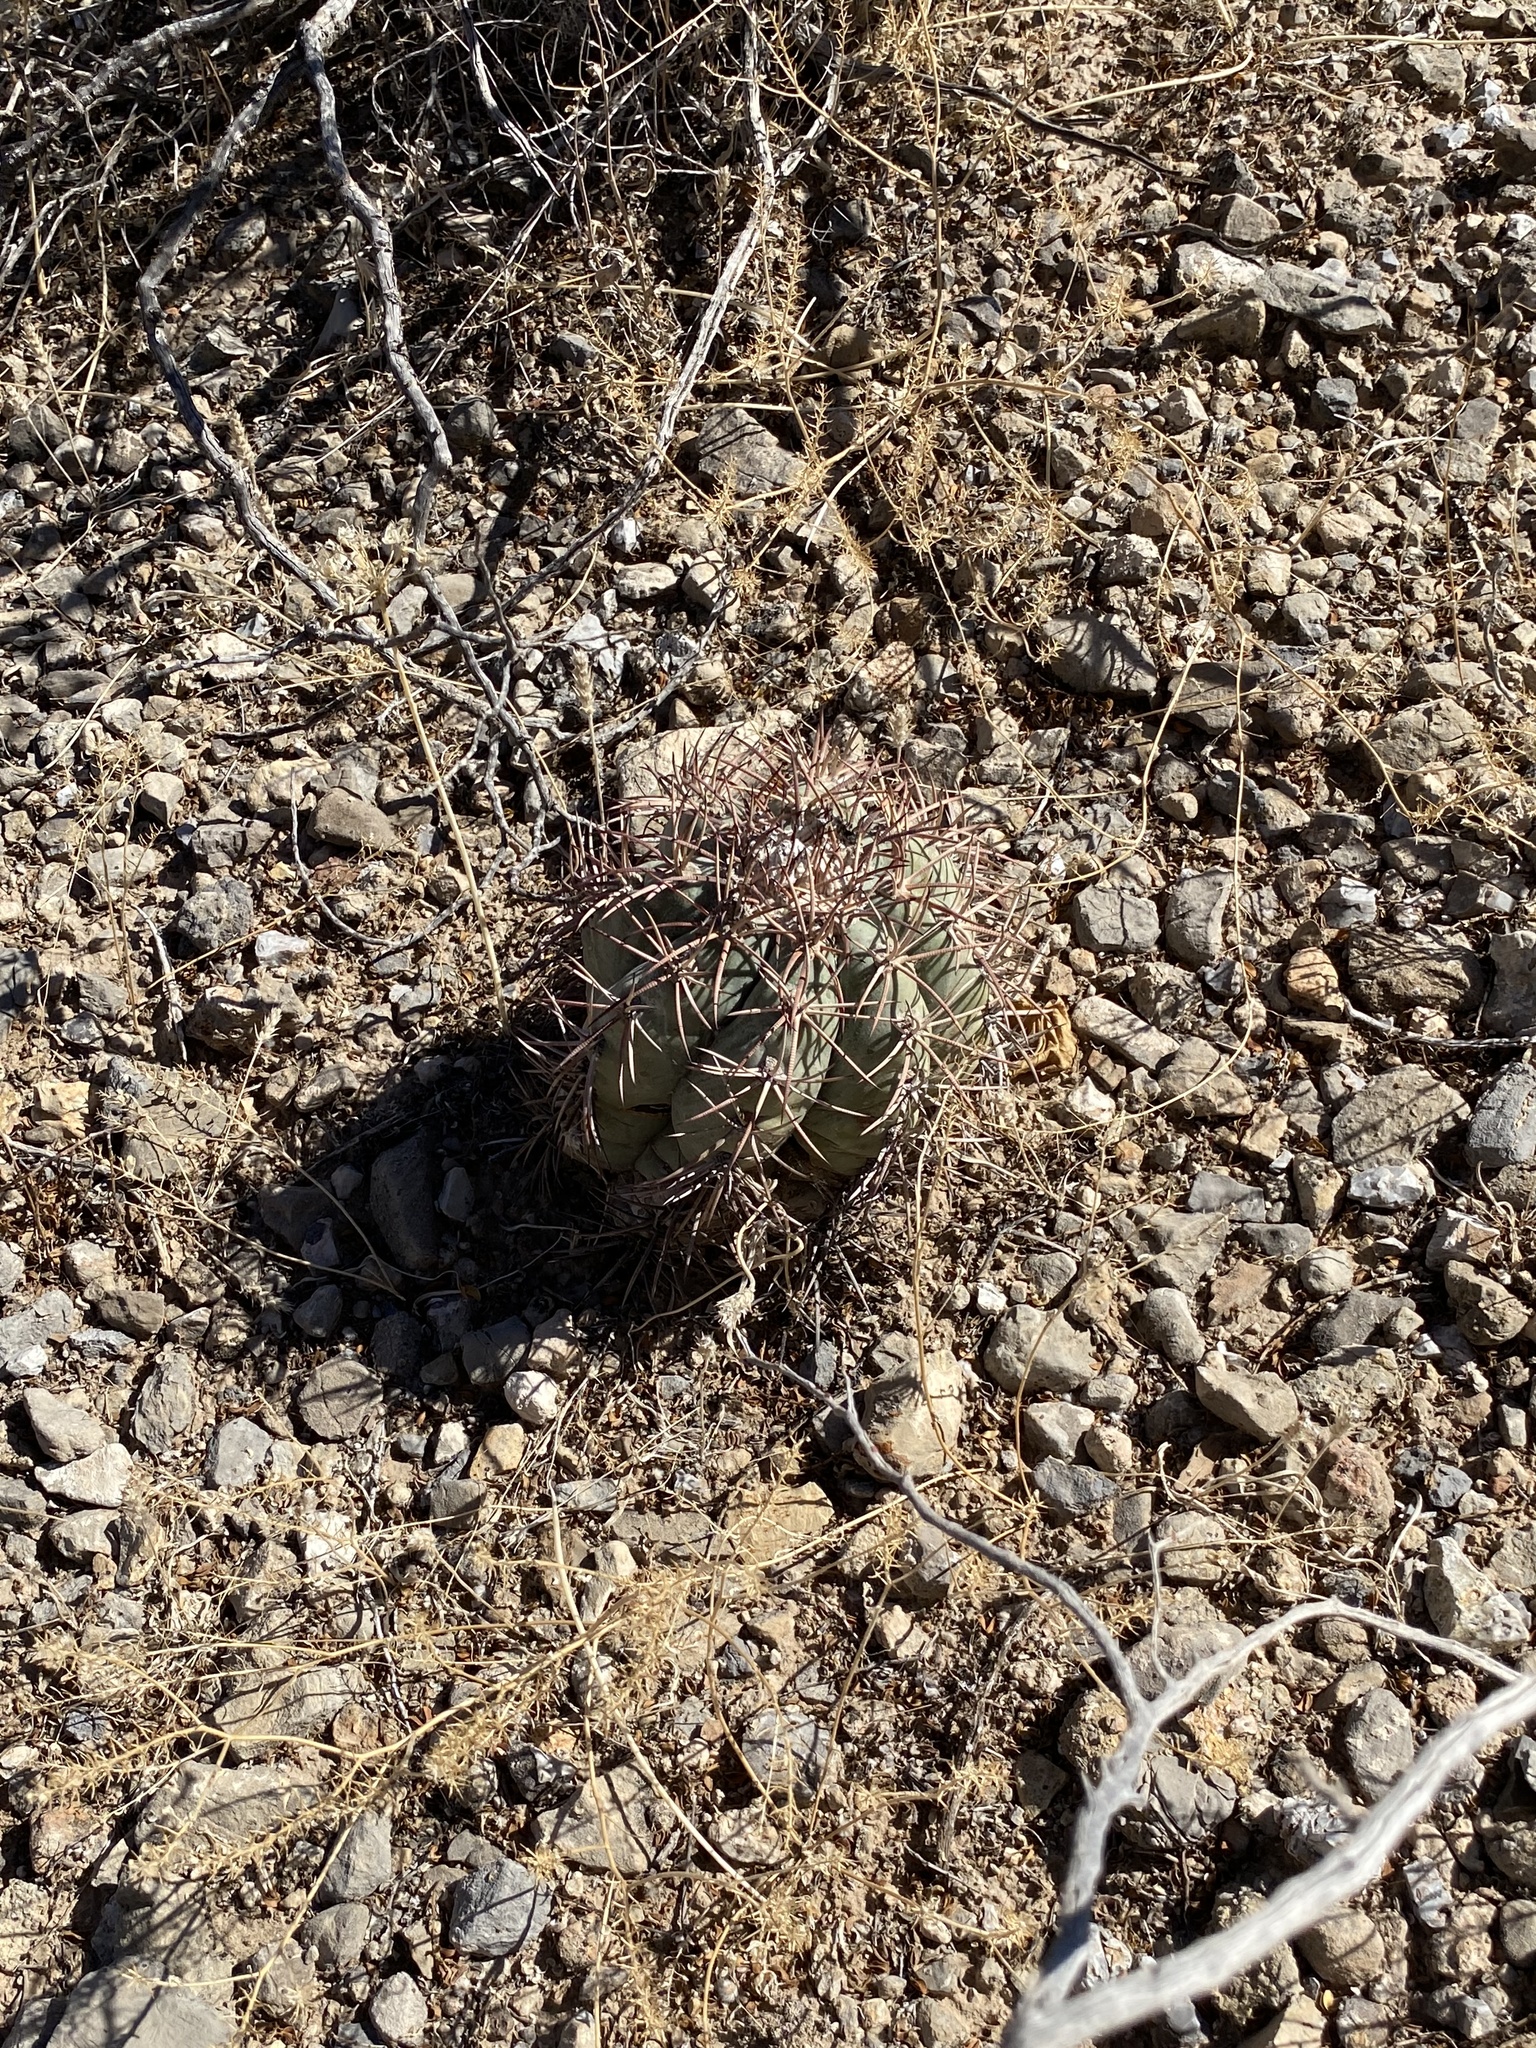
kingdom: Plantae
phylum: Tracheophyta
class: Magnoliopsida
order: Caryophyllales
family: Cactaceae
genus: Echinocactus
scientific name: Echinocactus horizonthalonius
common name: Devilshead
